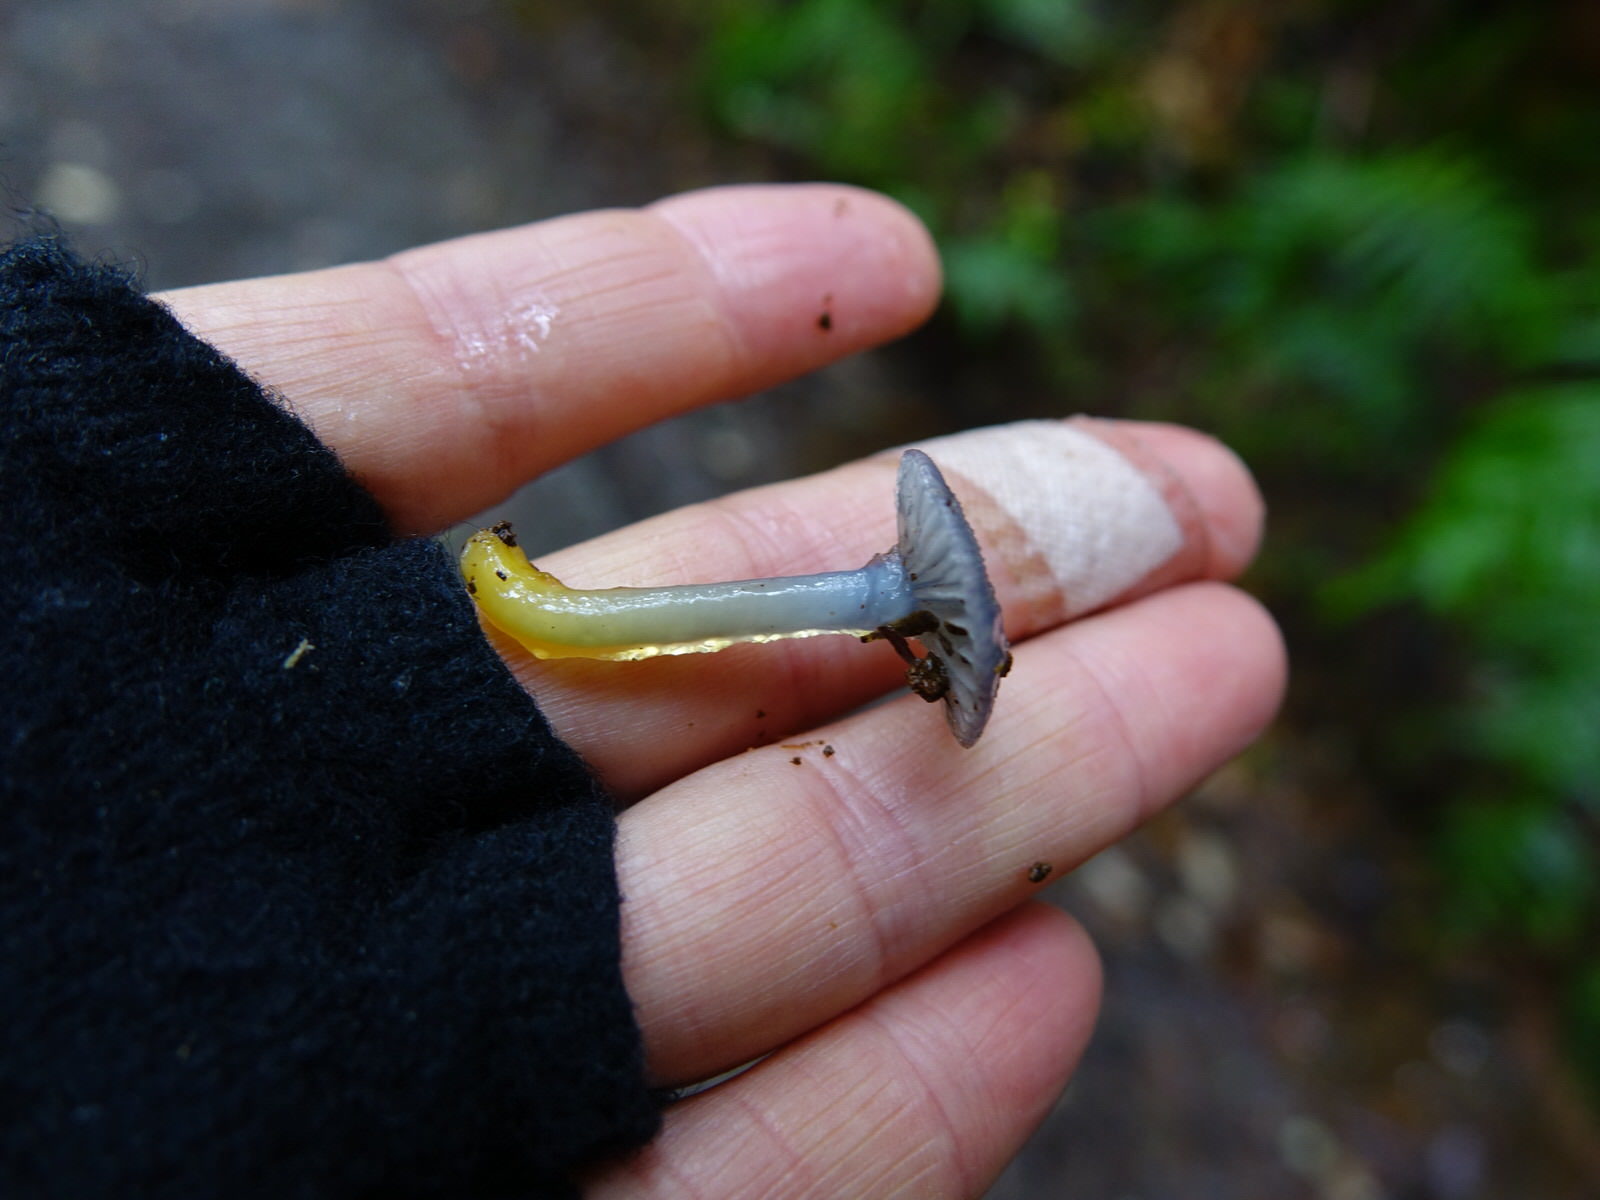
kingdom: Fungi
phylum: Basidiomycota
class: Agaricomycetes
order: Agaricales
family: Hygrophoraceae
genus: Gliophorus
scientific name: Gliophorus lilacipes
